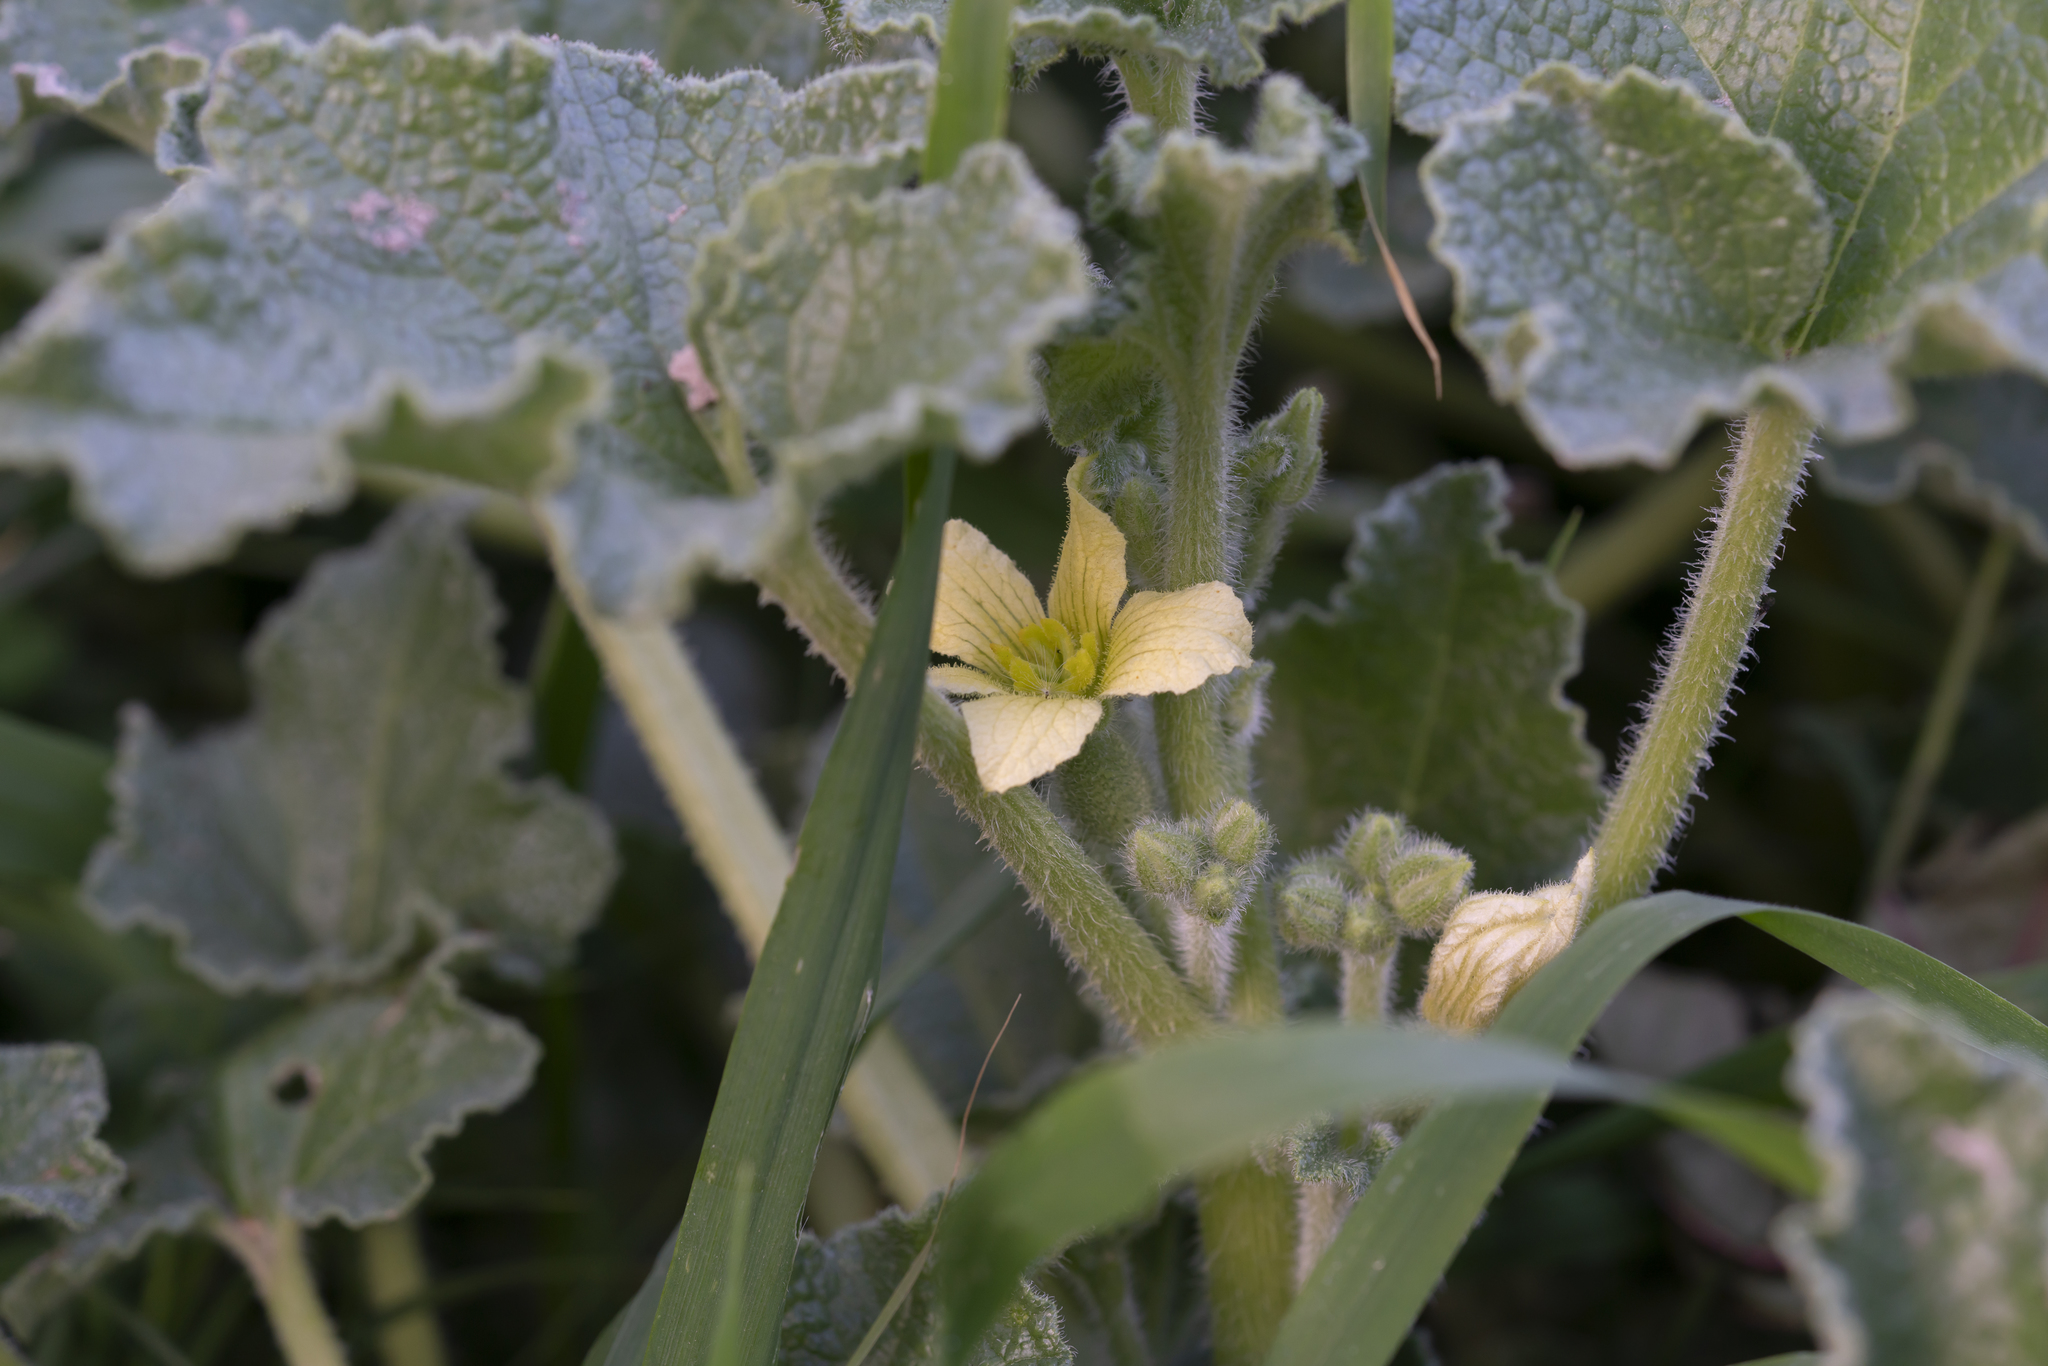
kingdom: Plantae
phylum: Tracheophyta
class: Magnoliopsida
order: Cucurbitales
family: Cucurbitaceae
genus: Ecballium
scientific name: Ecballium elaterium
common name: Squirting cucumber
